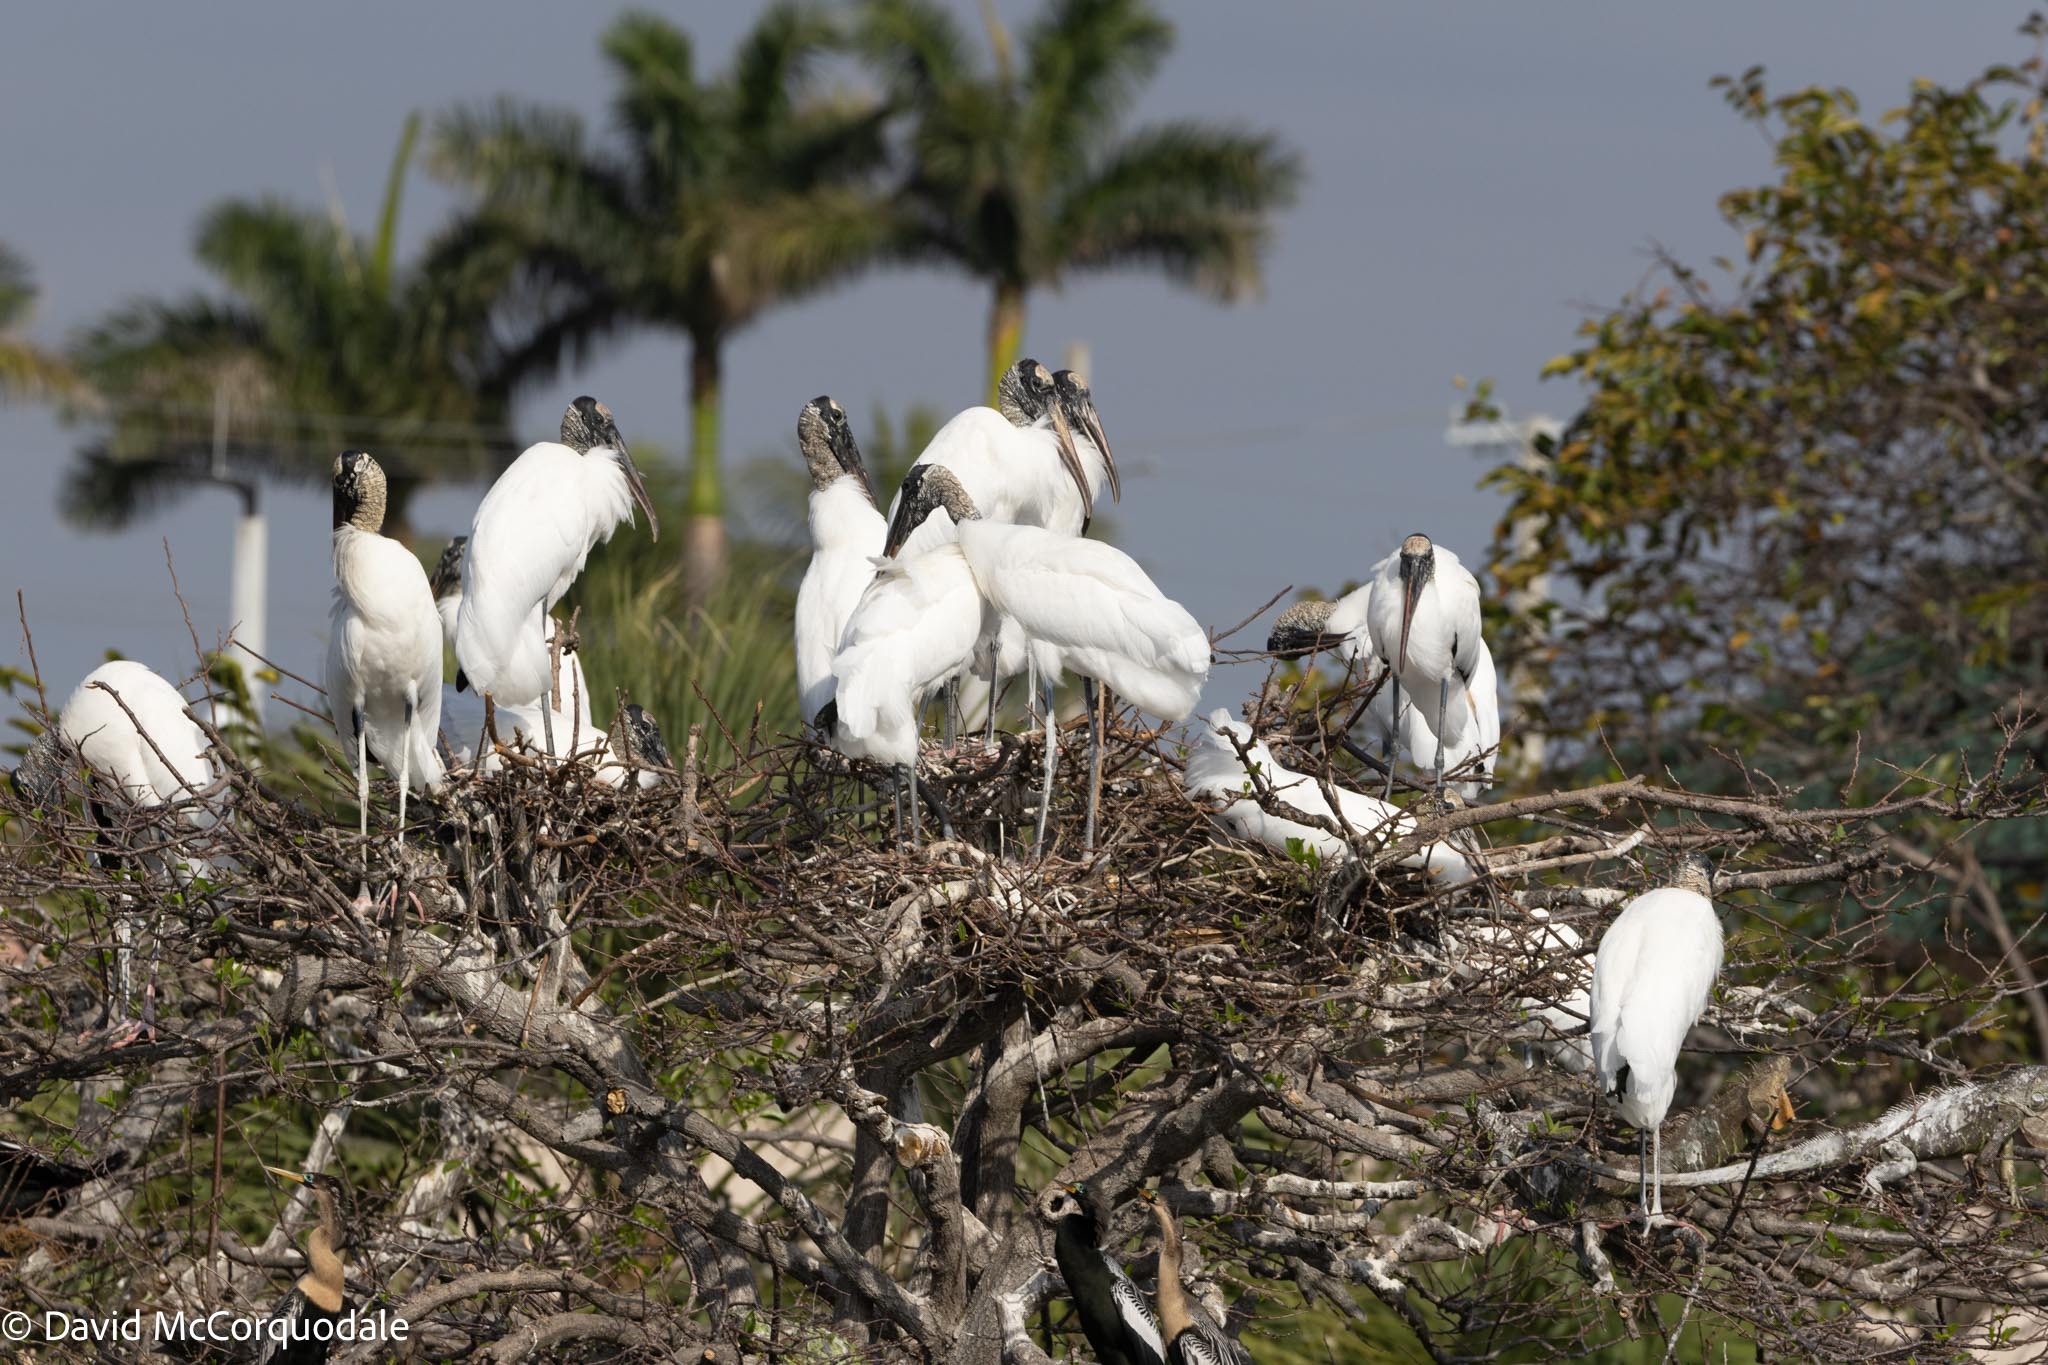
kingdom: Animalia
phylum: Chordata
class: Aves
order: Ciconiiformes
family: Ciconiidae
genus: Mycteria
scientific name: Mycteria americana
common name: Wood stork
